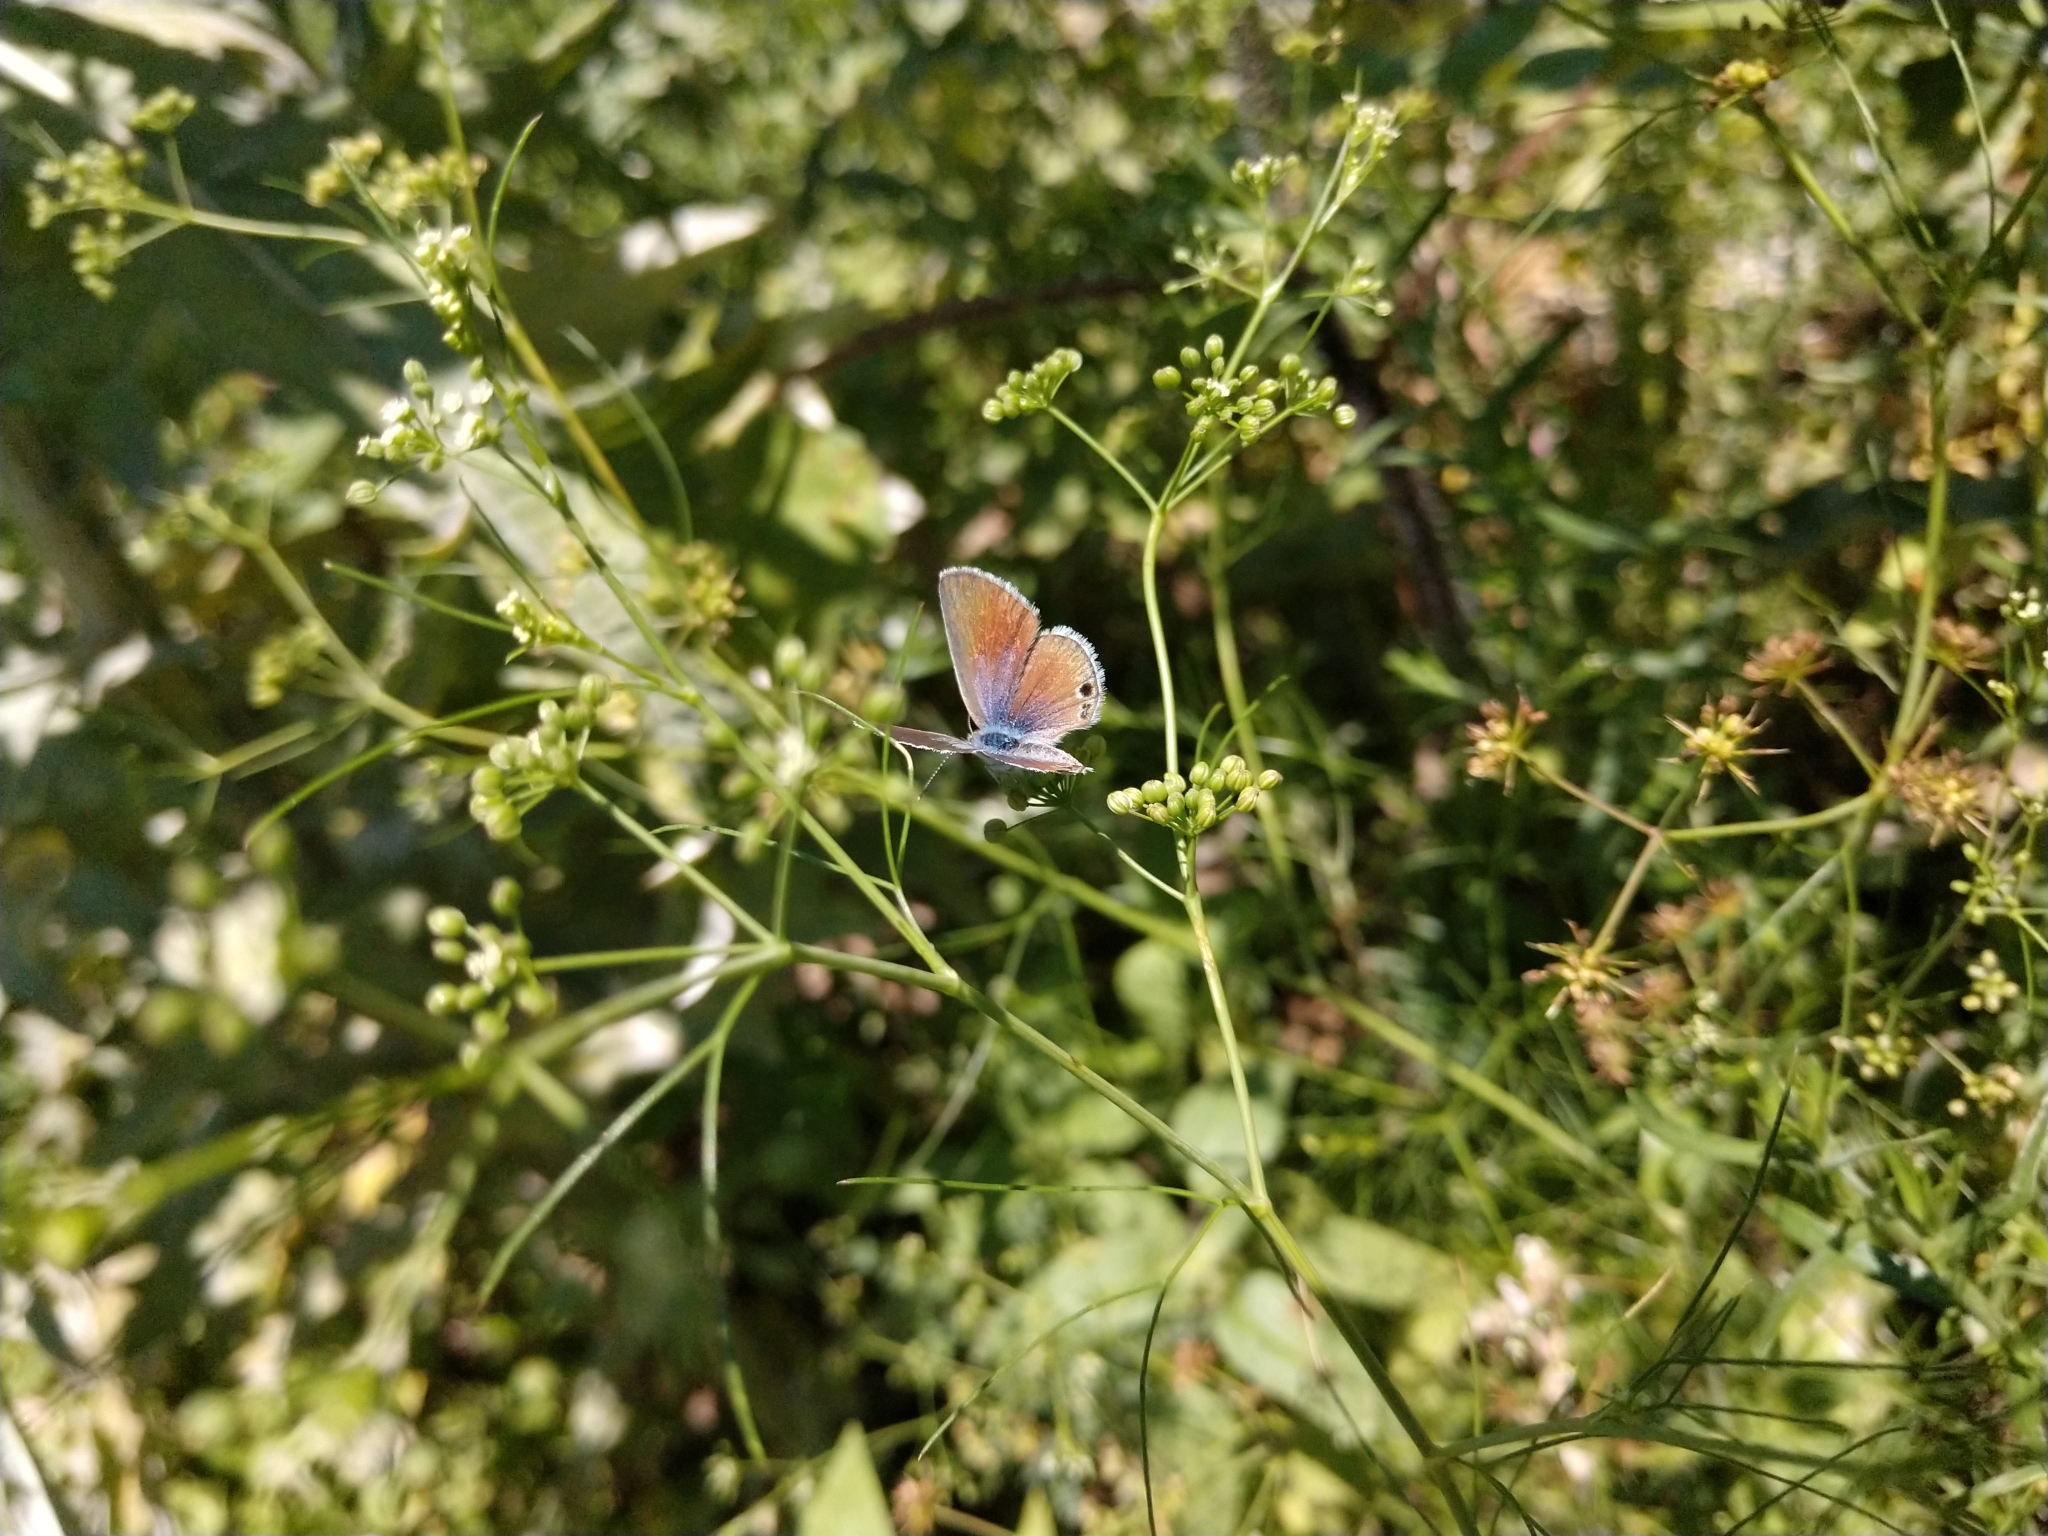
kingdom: Animalia
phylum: Arthropoda
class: Insecta
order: Lepidoptera
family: Lycaenidae
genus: Echinargus
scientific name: Echinargus isola
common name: Reakirt's blue
